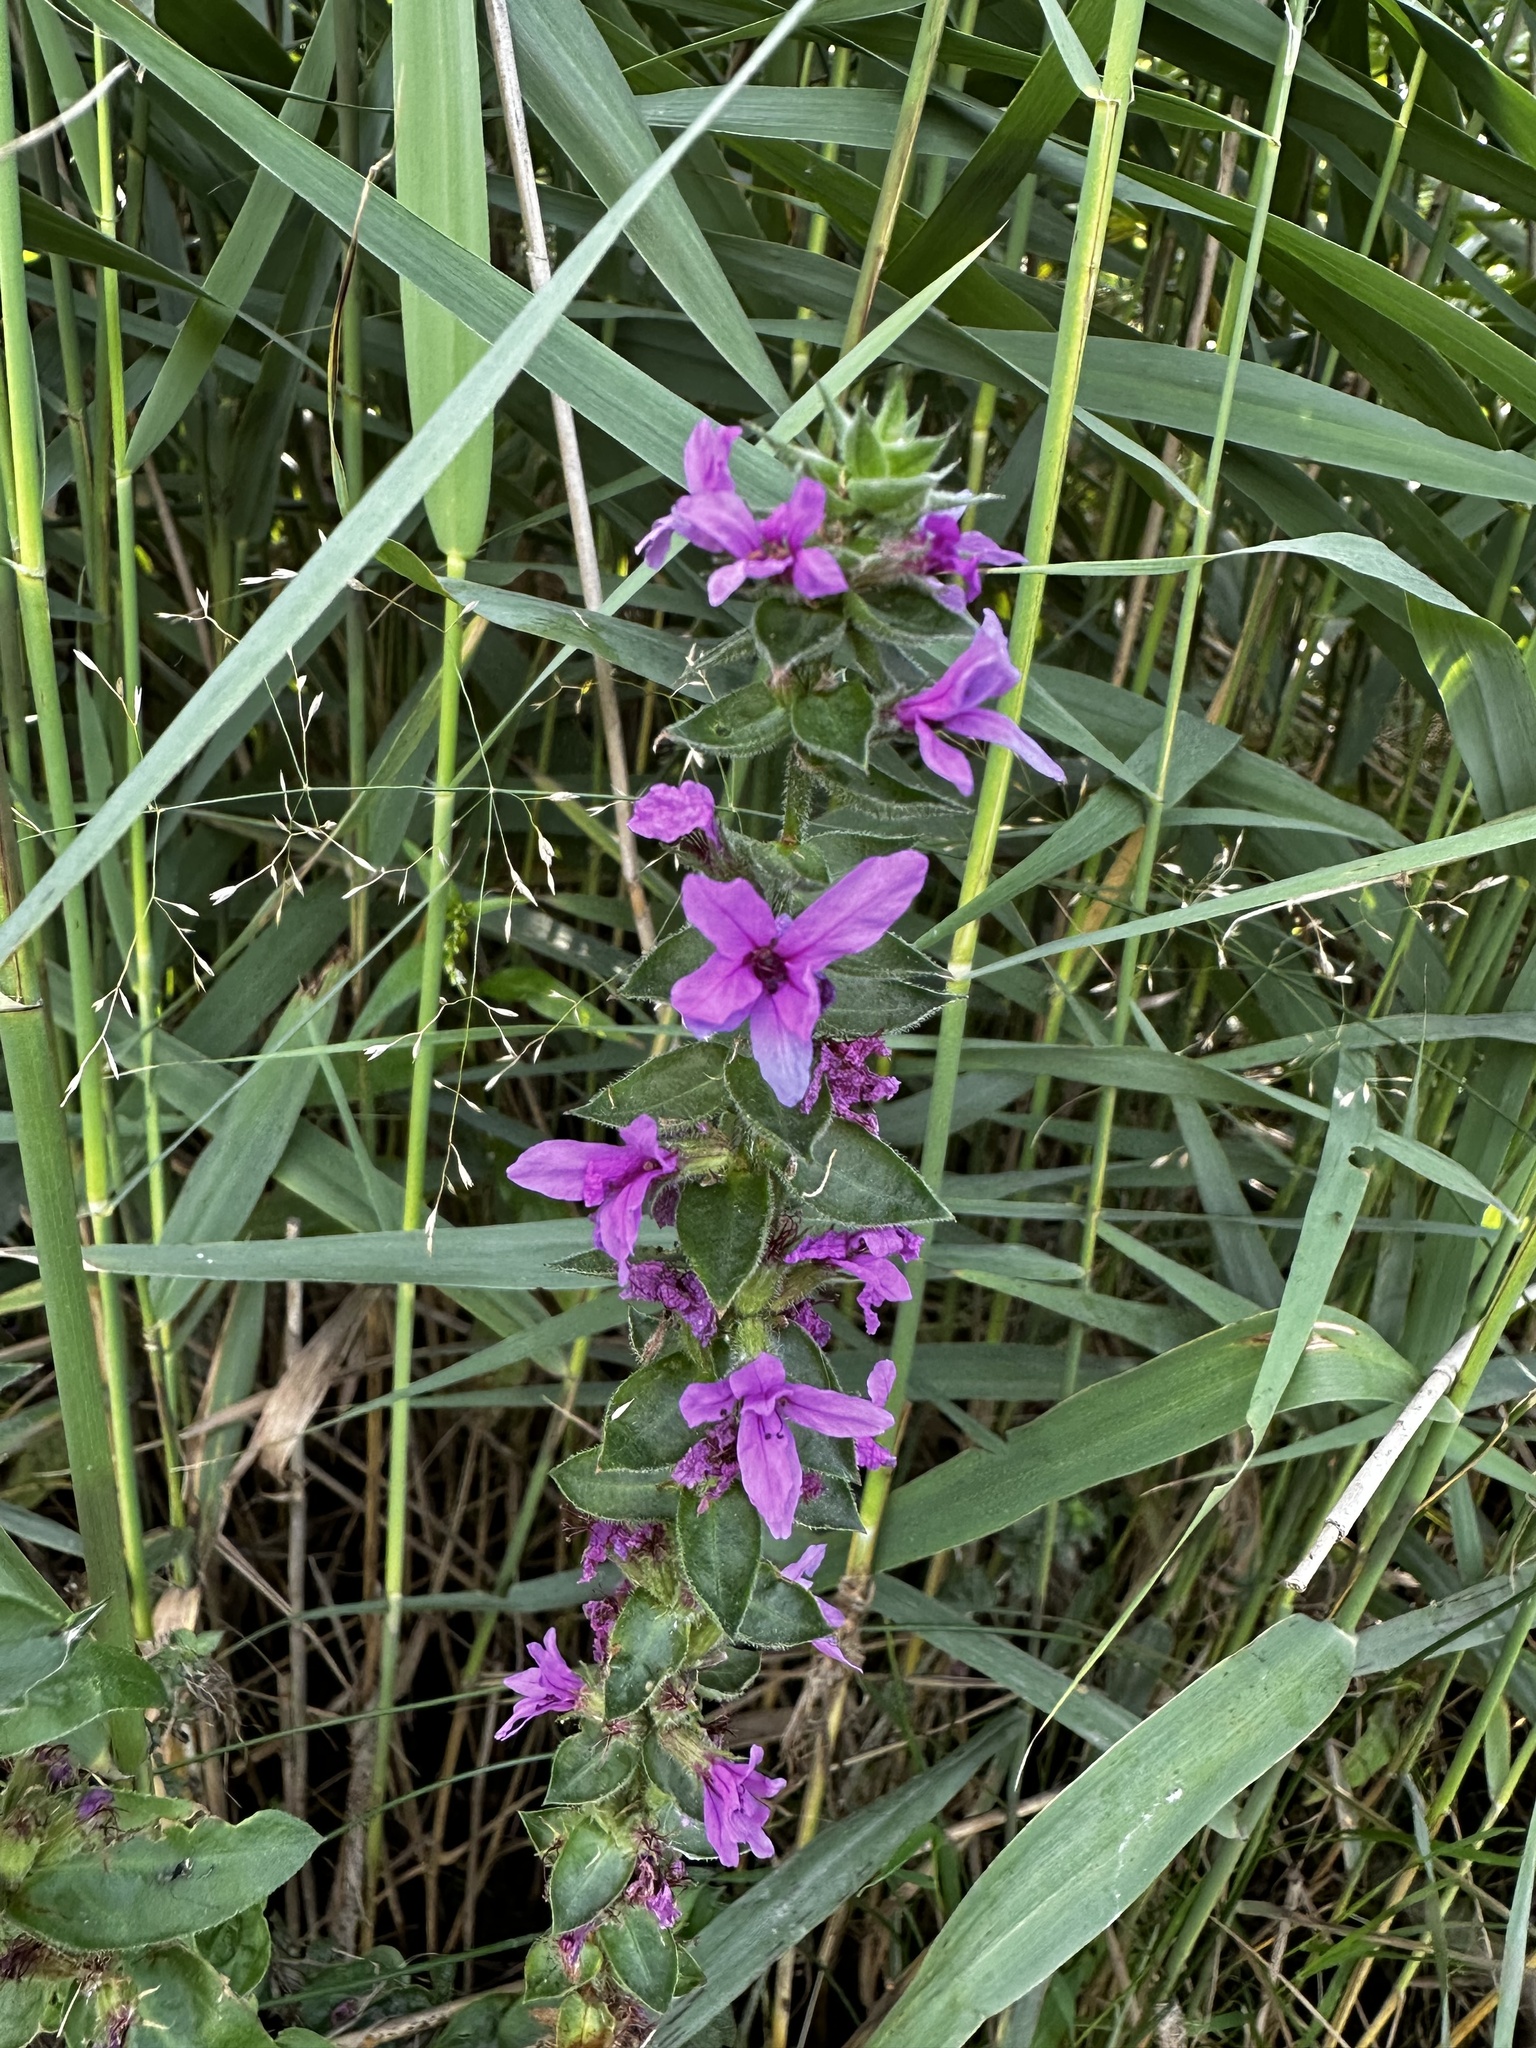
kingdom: Plantae
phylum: Tracheophyta
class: Magnoliopsida
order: Myrtales
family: Lythraceae
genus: Lythrum
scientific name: Lythrum salicaria
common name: Purple loosestrife
